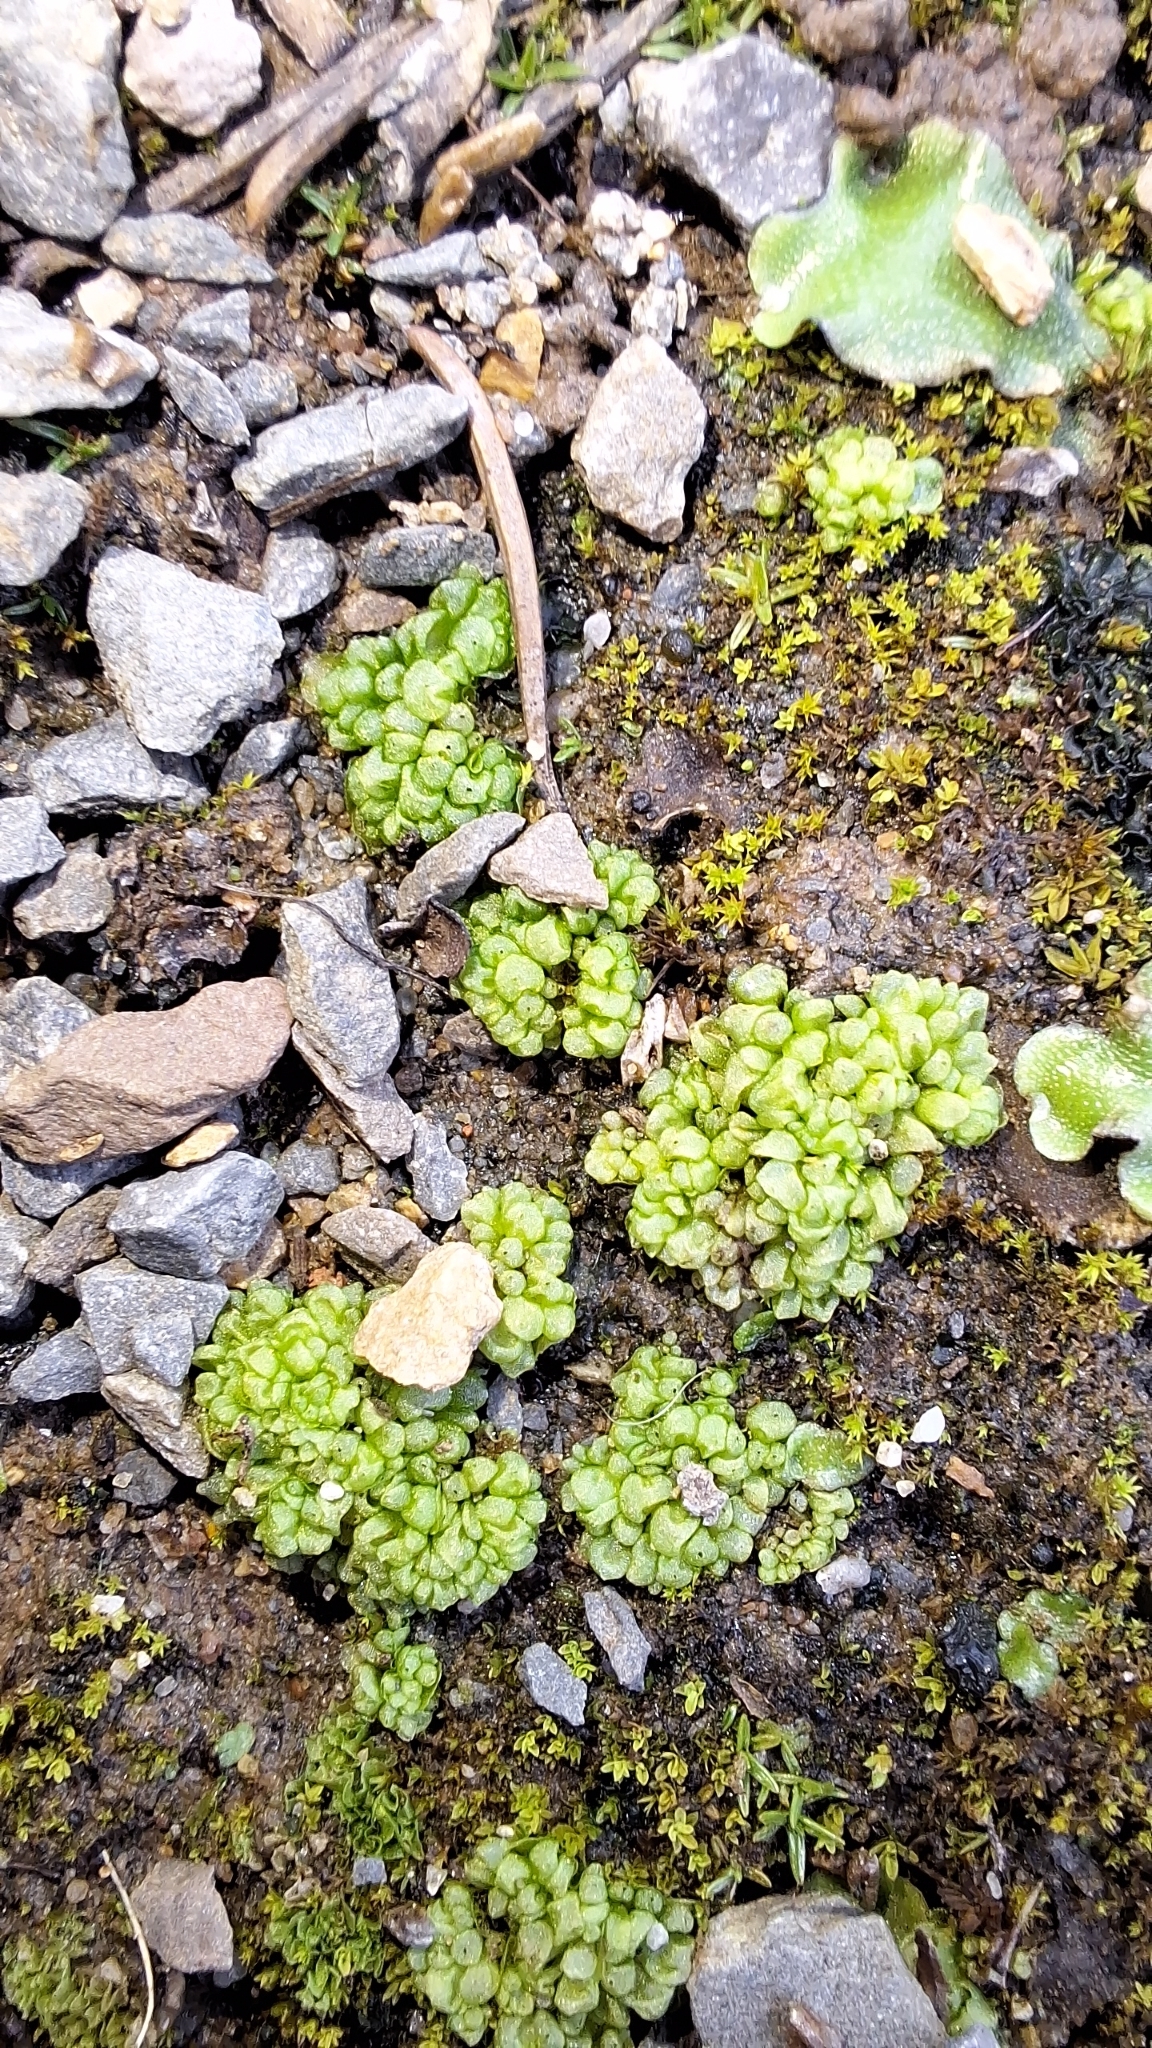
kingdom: Plantae
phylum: Marchantiophyta
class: Marchantiopsida
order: Sphaerocarpales
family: Sphaerocarpaceae
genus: Sphaerocarpos
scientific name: Sphaerocarpos texanus
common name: Texas balloonwort
